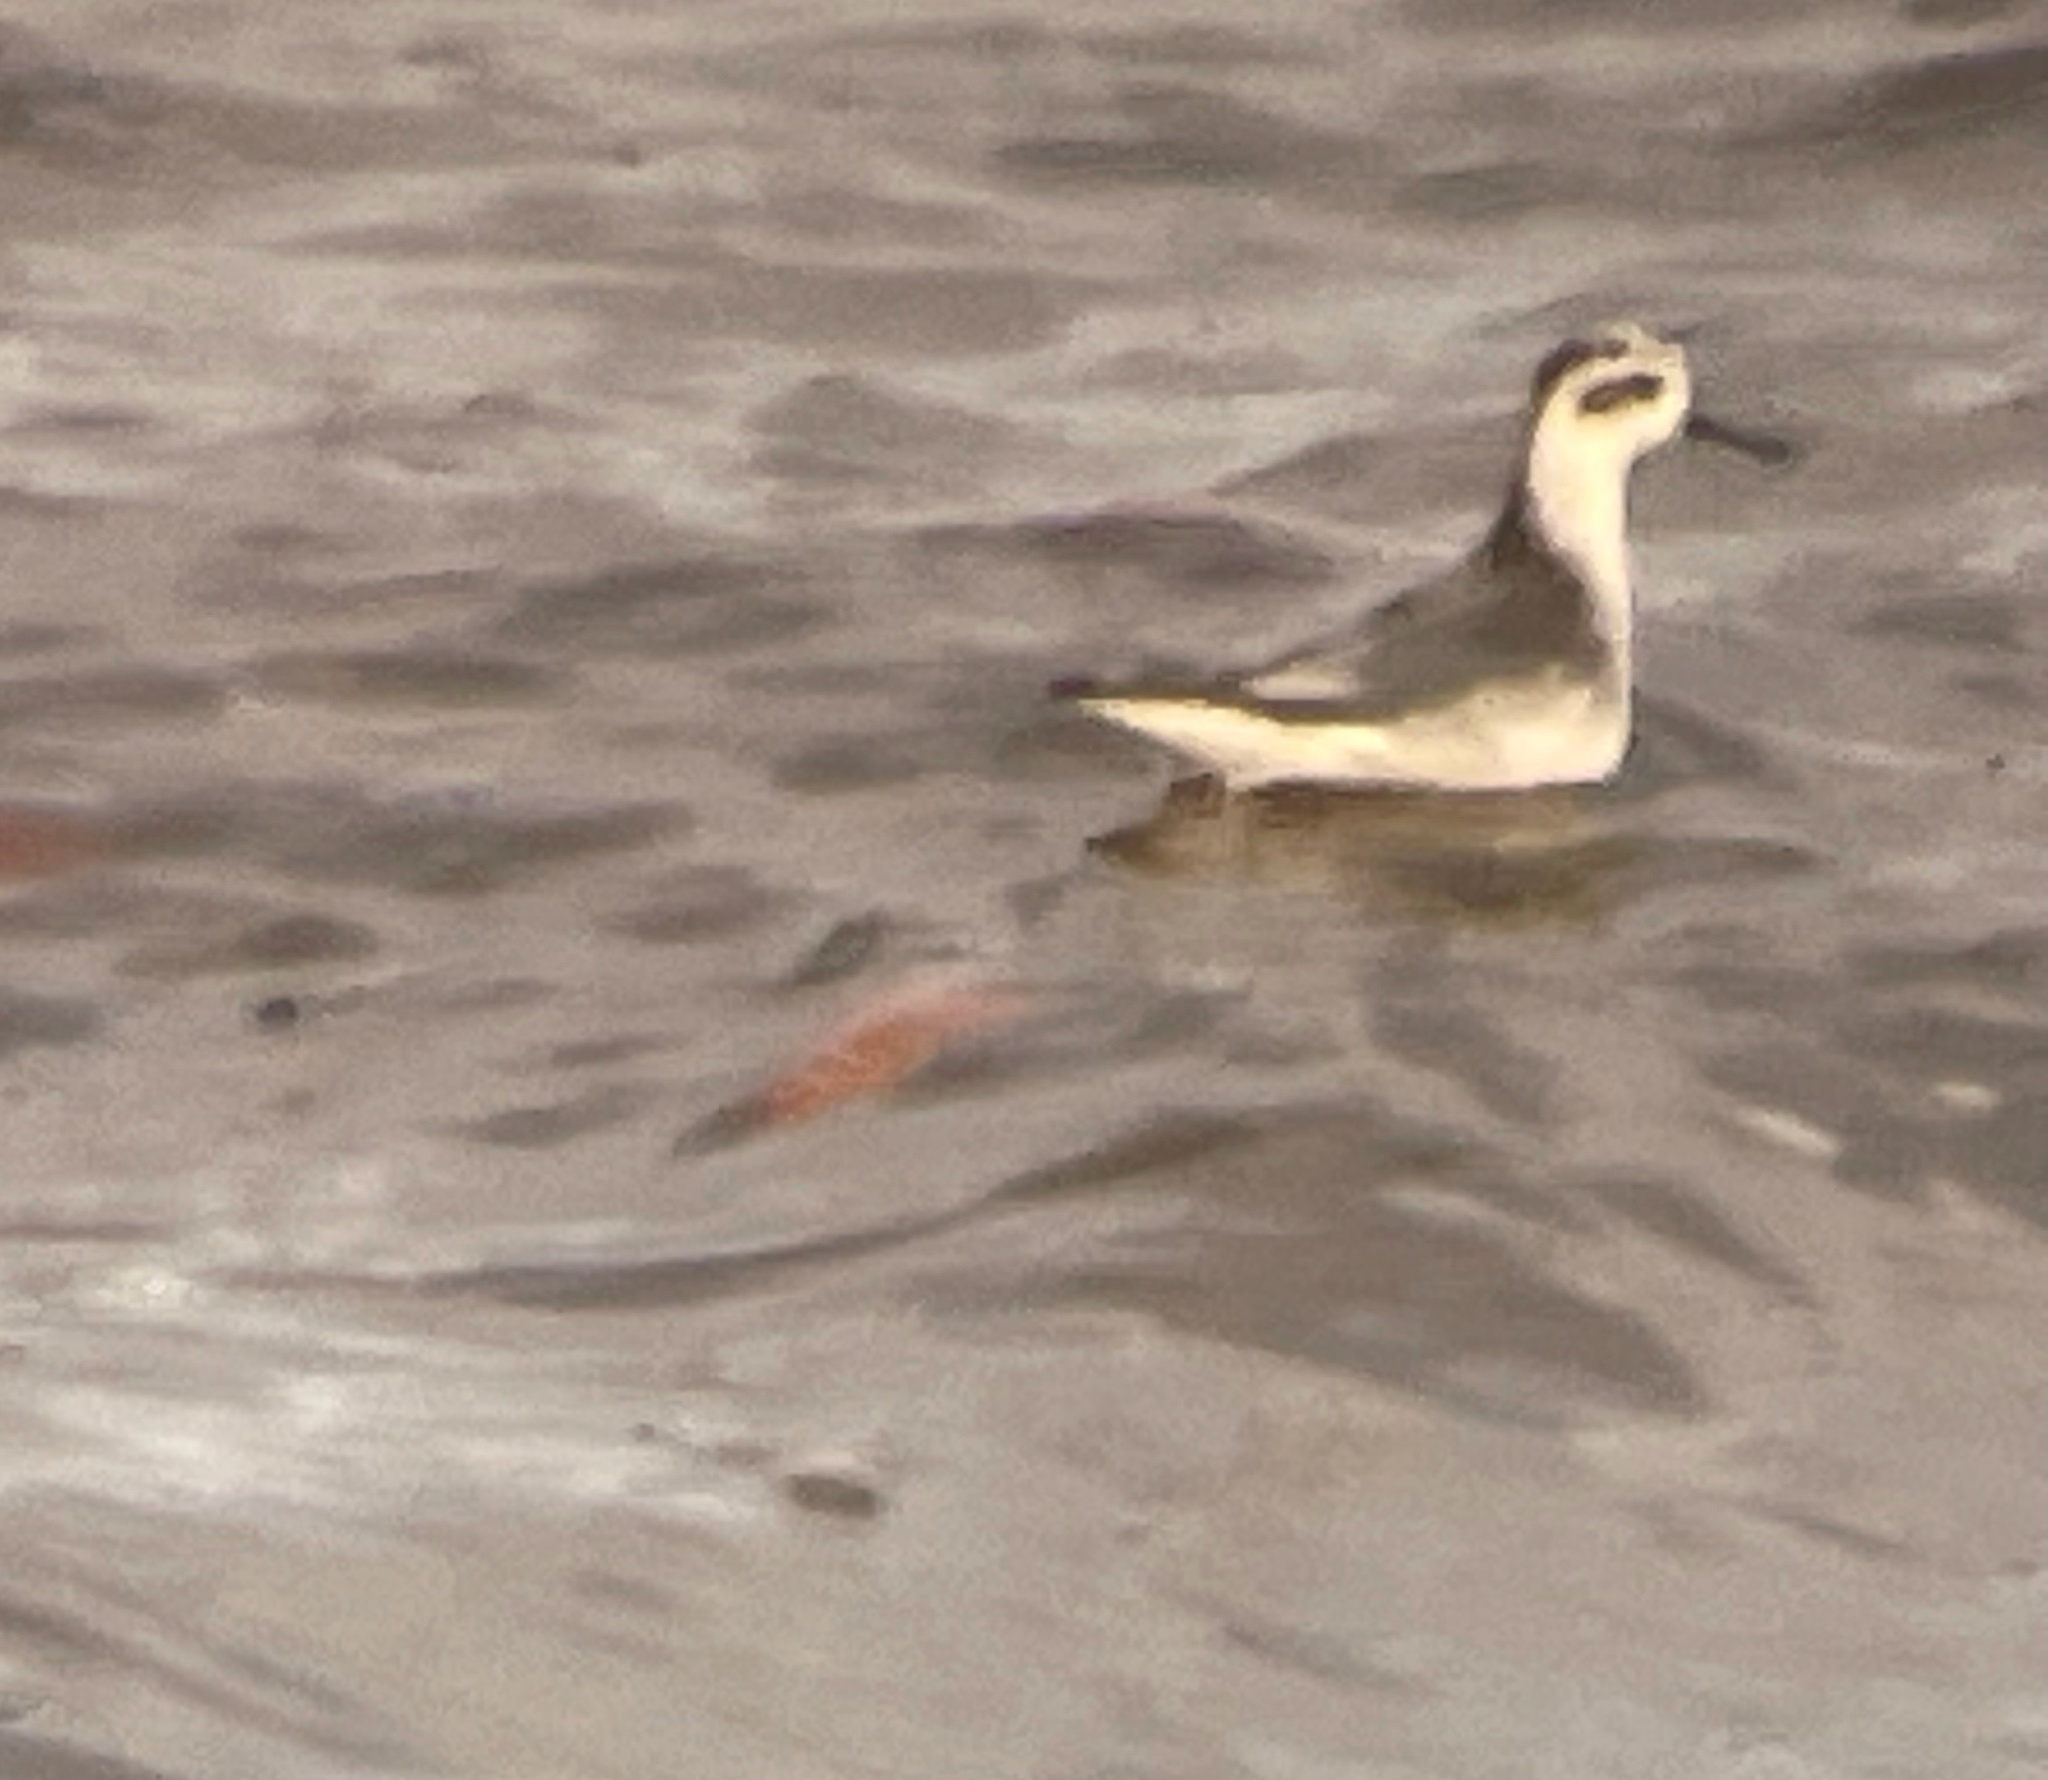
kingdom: Animalia
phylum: Chordata
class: Aves
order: Charadriiformes
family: Scolopacidae
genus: Phalaropus
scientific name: Phalaropus fulicarius
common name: Red phalarope
